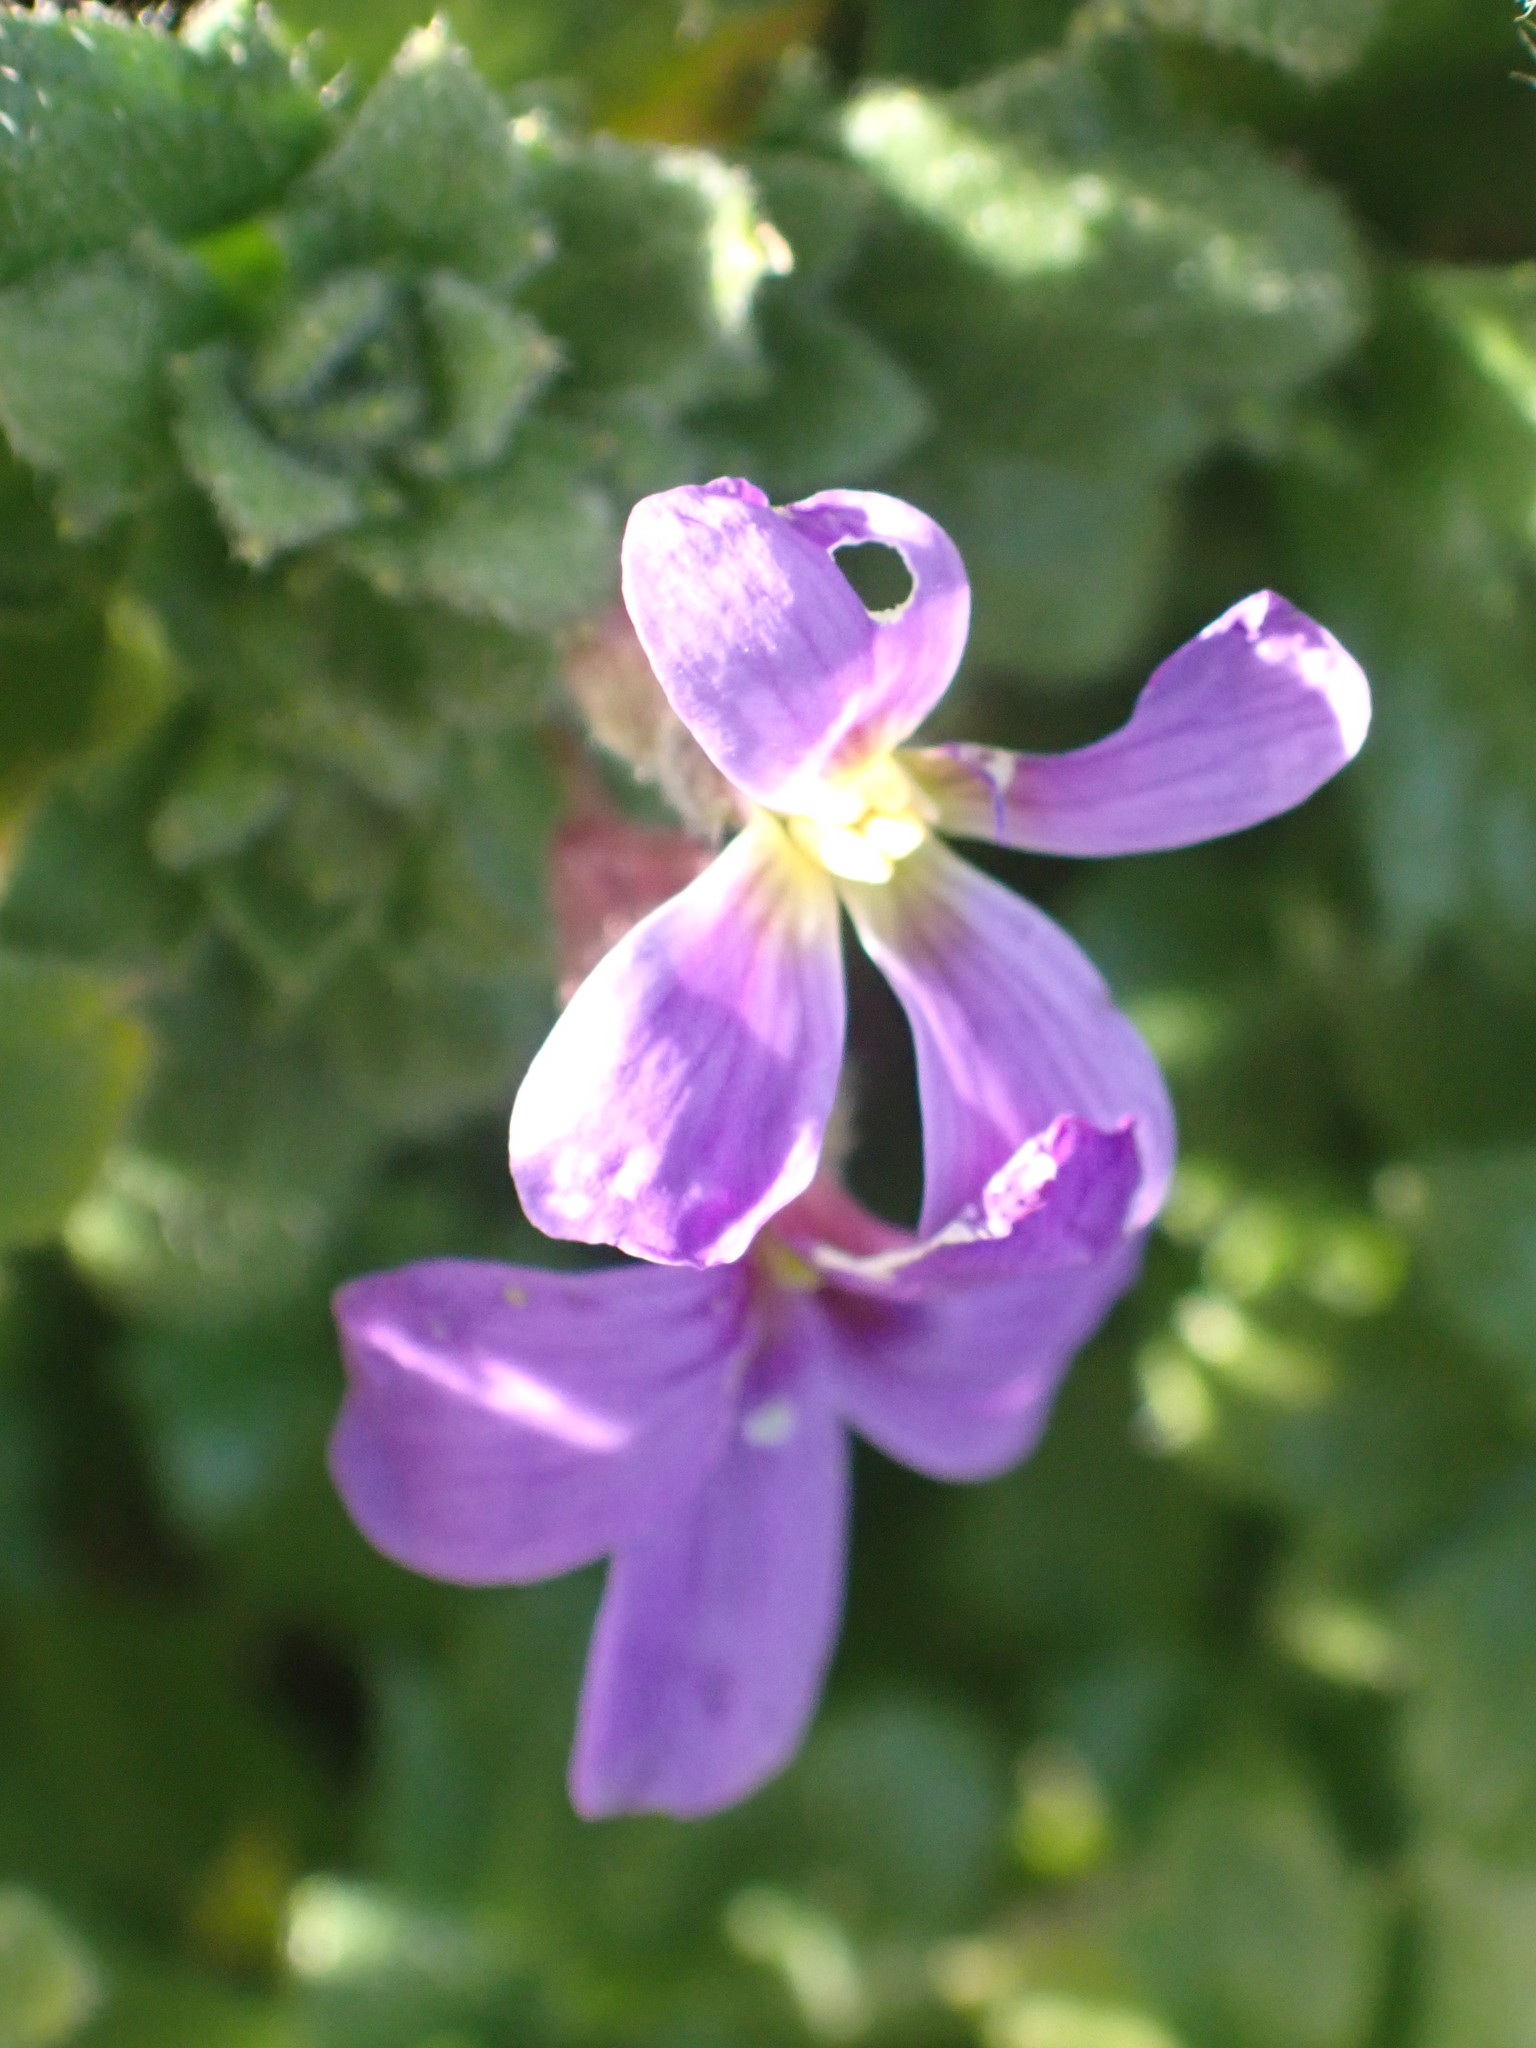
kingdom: Plantae
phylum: Tracheophyta
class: Magnoliopsida
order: Brassicales
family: Brassicaceae
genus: Aubrieta
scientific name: Aubrieta deltoidea
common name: Aubretia
